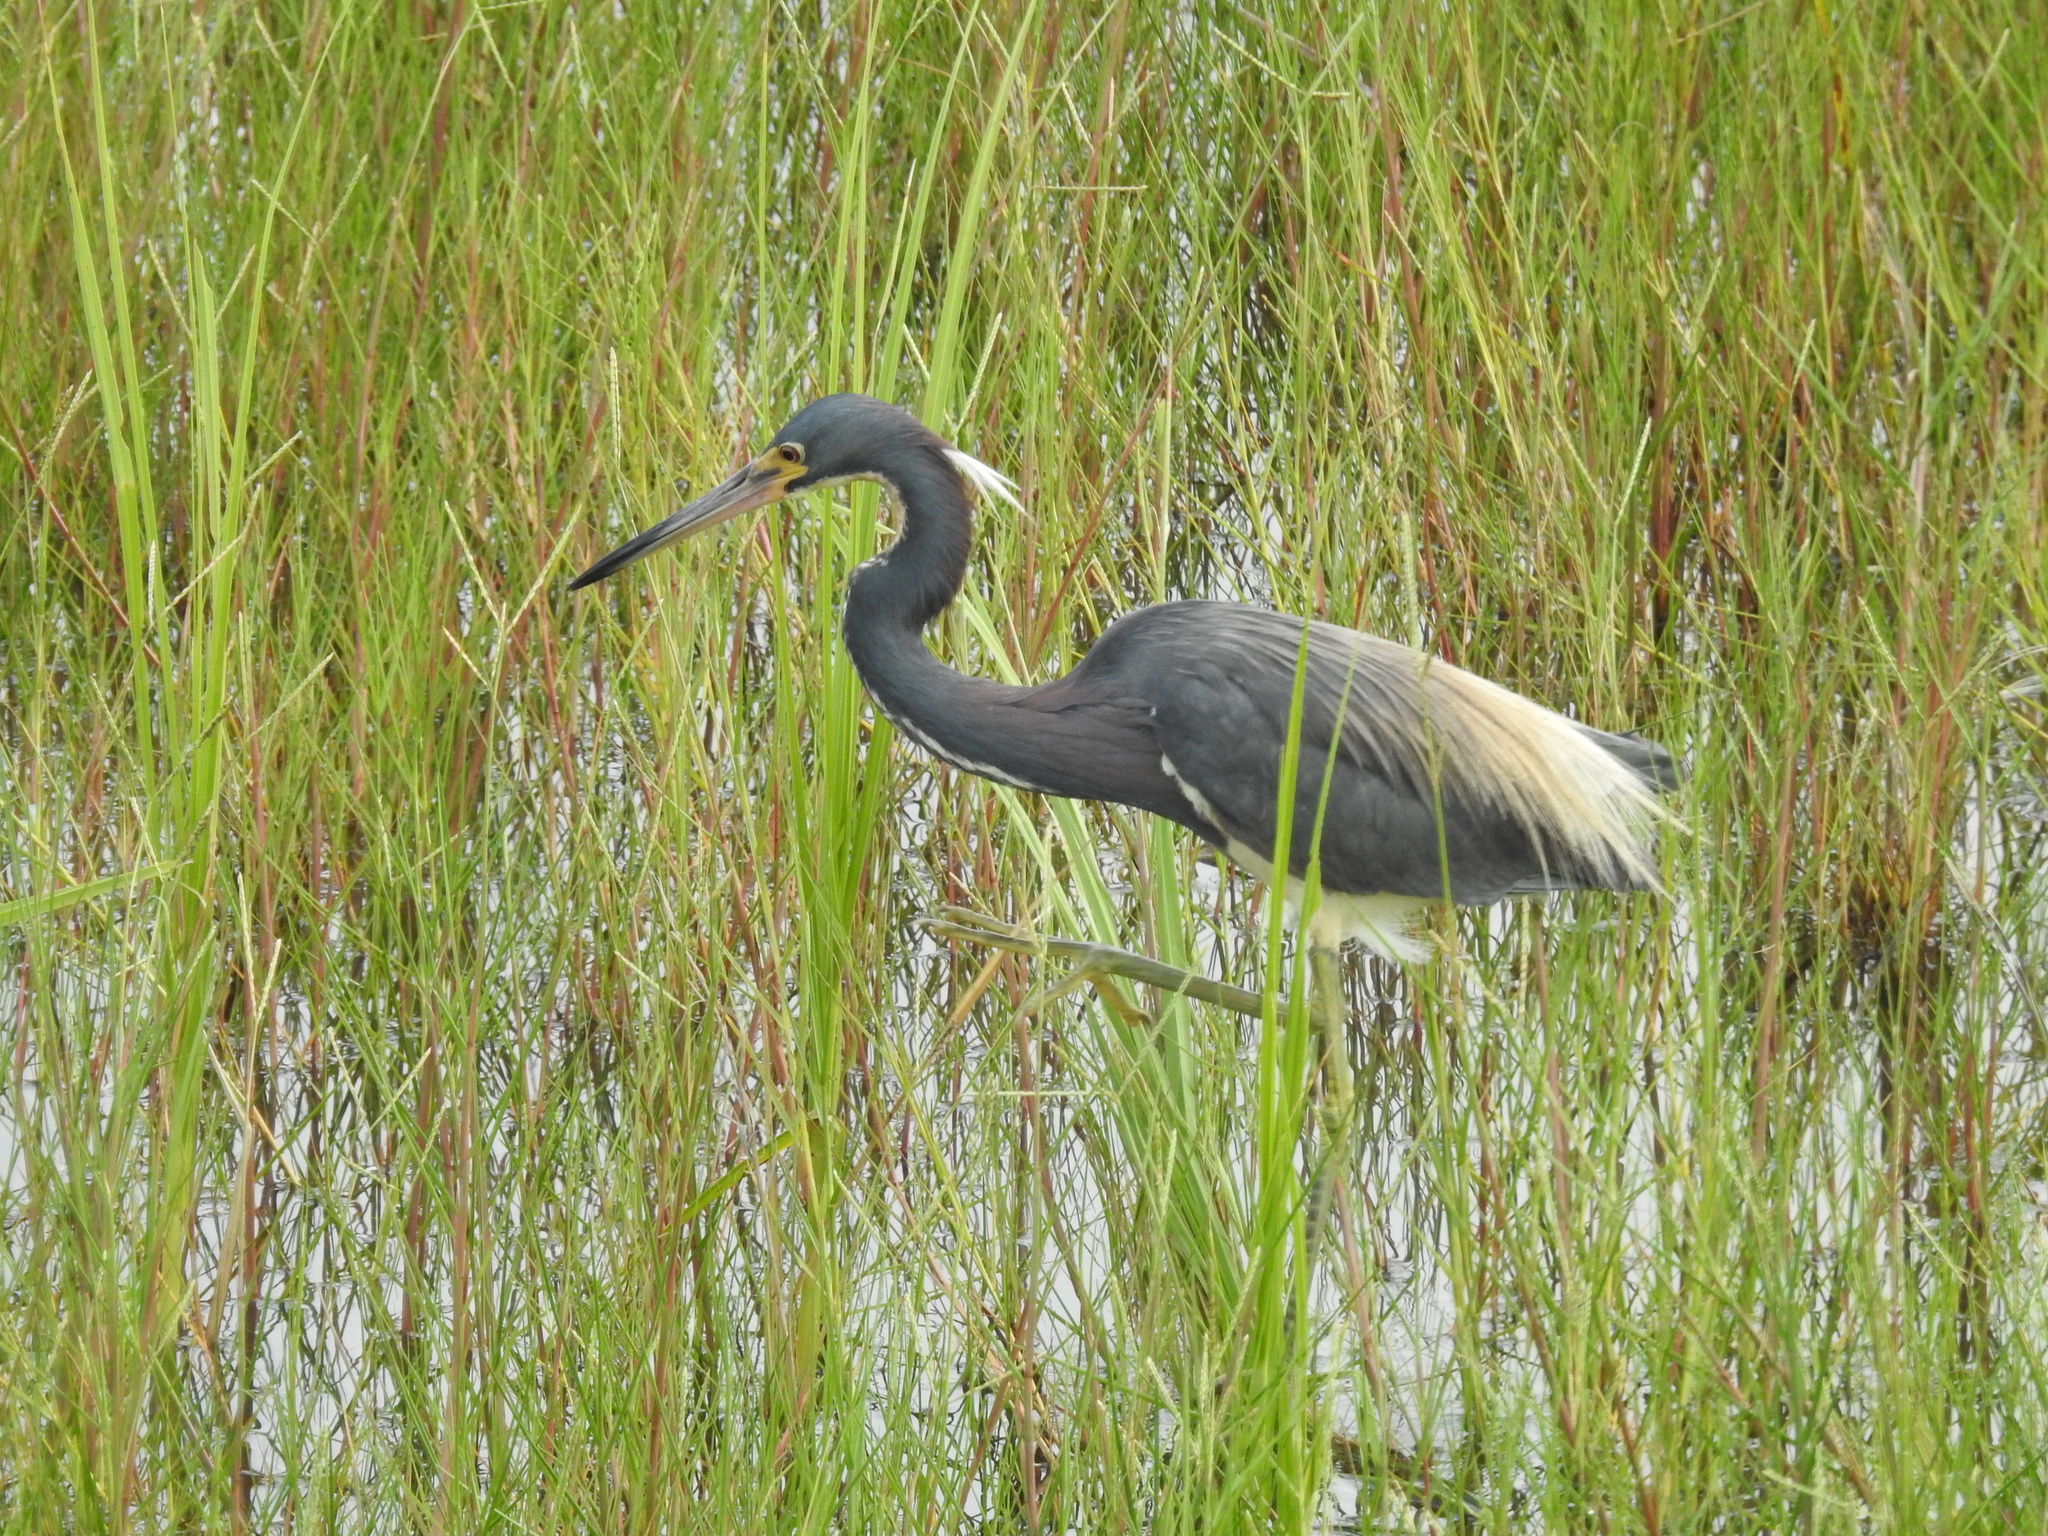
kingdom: Animalia
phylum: Chordata
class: Aves
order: Pelecaniformes
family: Ardeidae
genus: Egretta
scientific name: Egretta tricolor
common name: Tricolored heron
